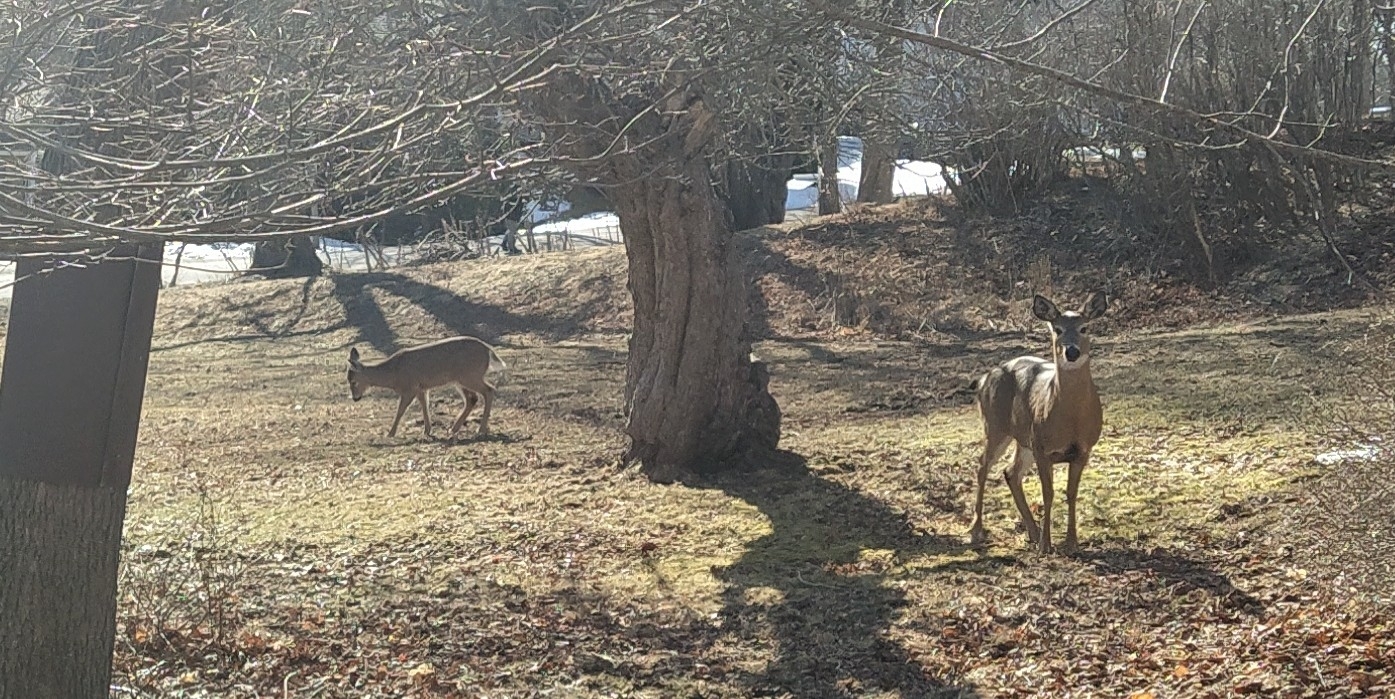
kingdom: Animalia
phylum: Chordata
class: Mammalia
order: Artiodactyla
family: Cervidae
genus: Odocoileus
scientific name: Odocoileus virginianus
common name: White-tailed deer
